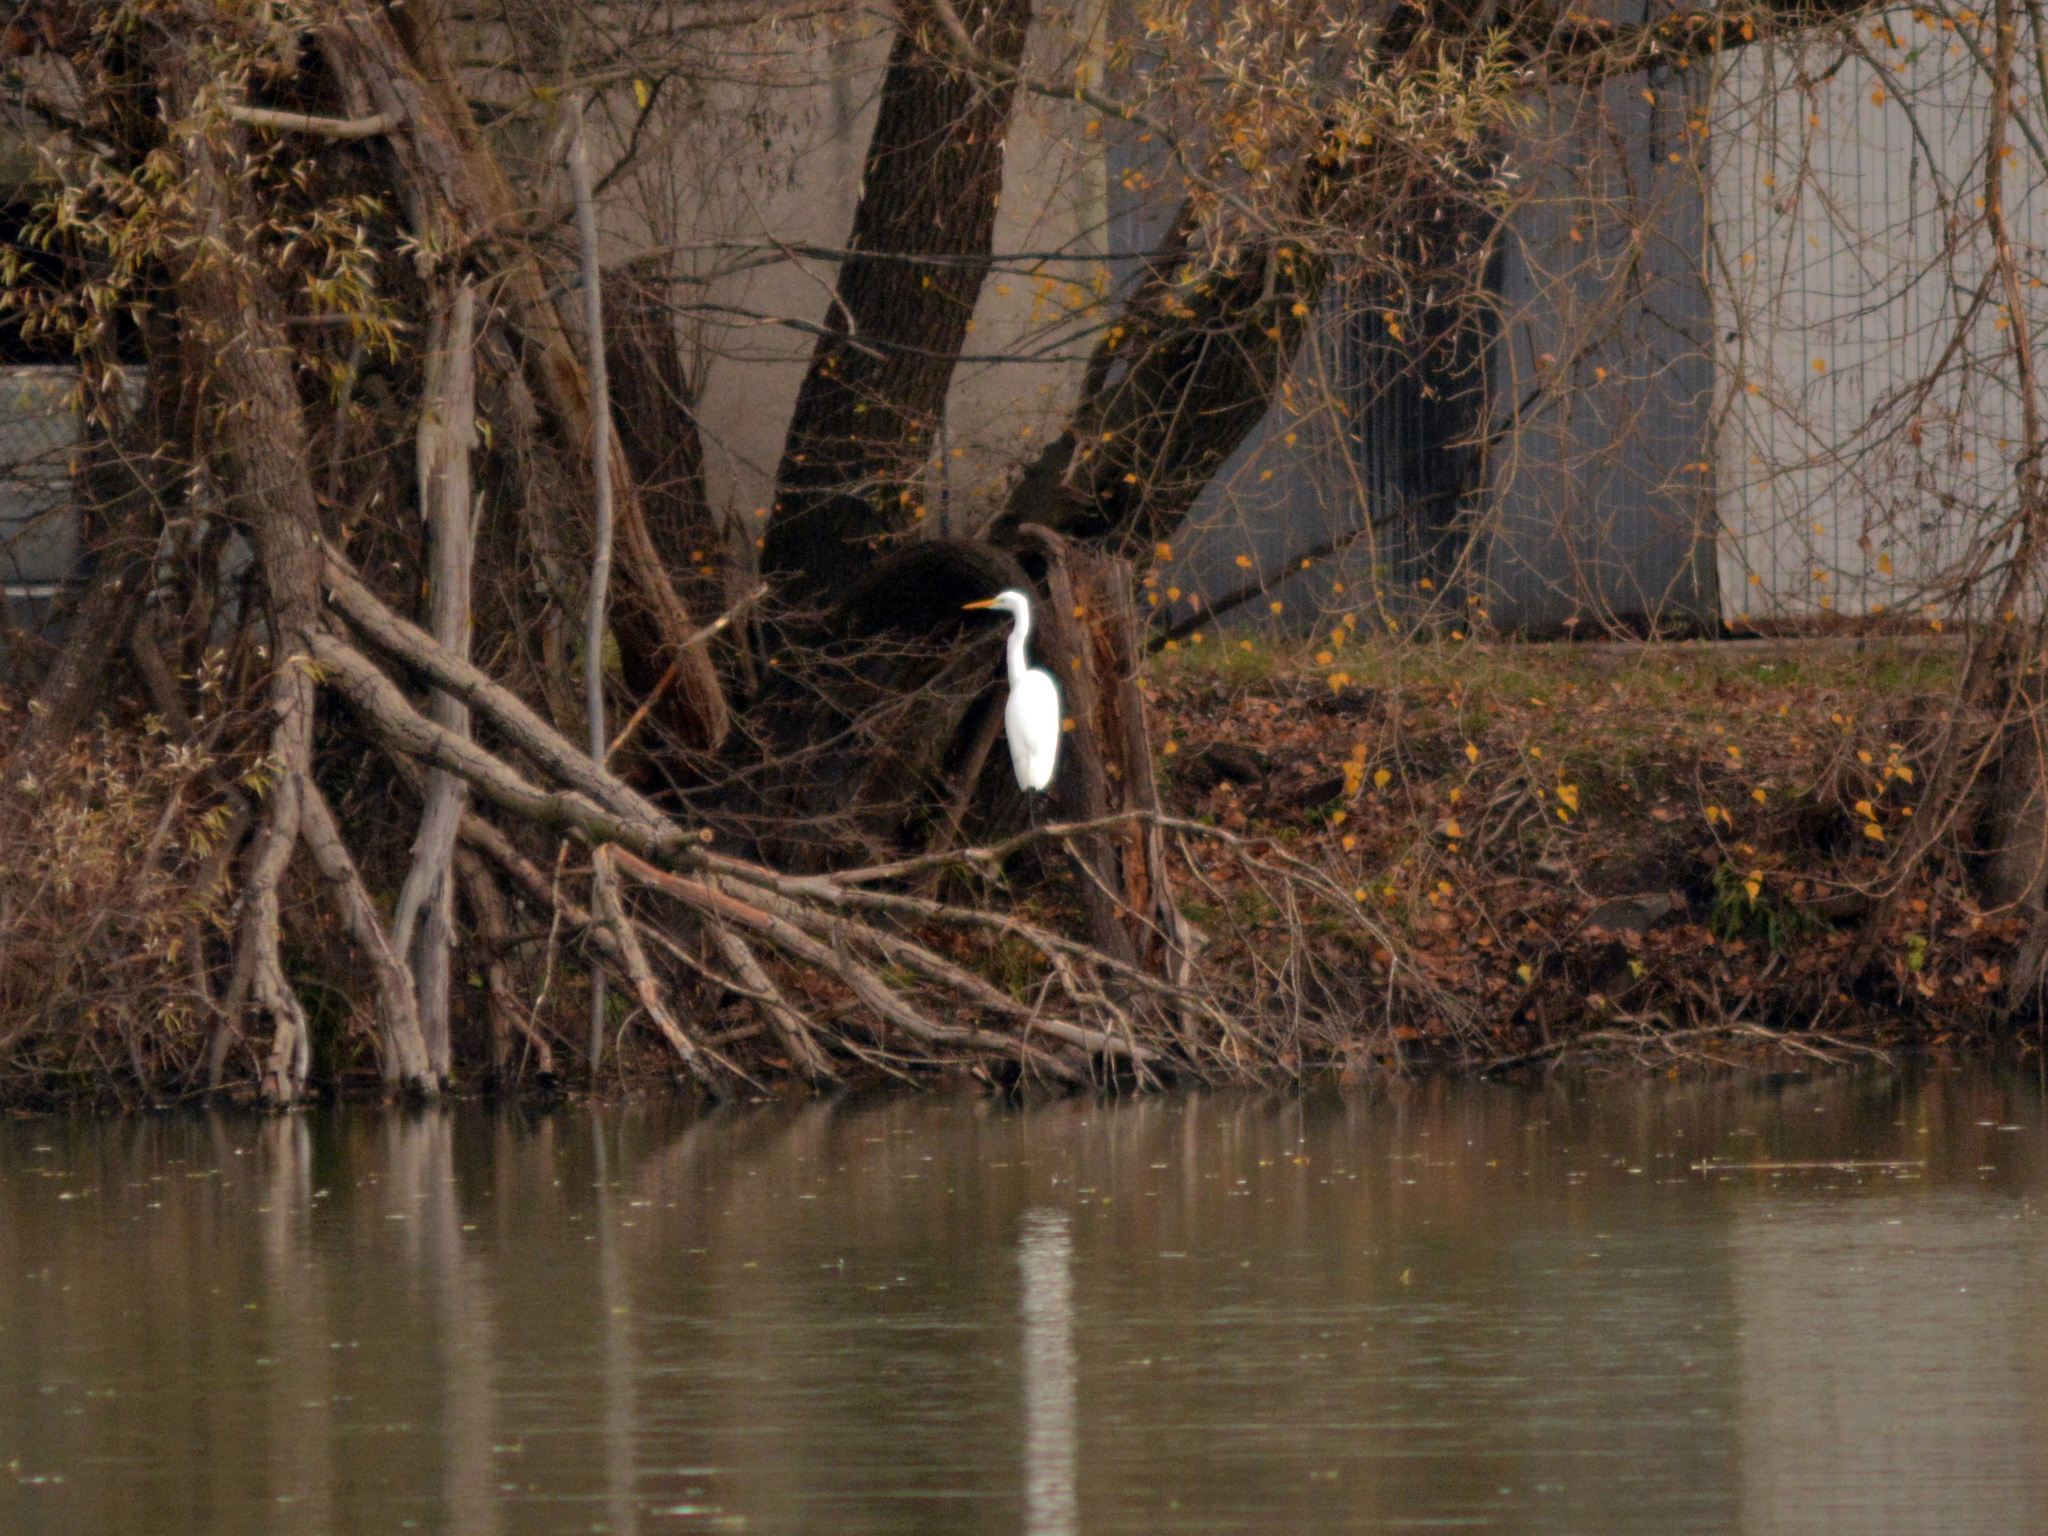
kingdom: Animalia
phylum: Chordata
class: Aves
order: Pelecaniformes
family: Ardeidae
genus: Ardea
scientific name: Ardea alba
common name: Great egret
